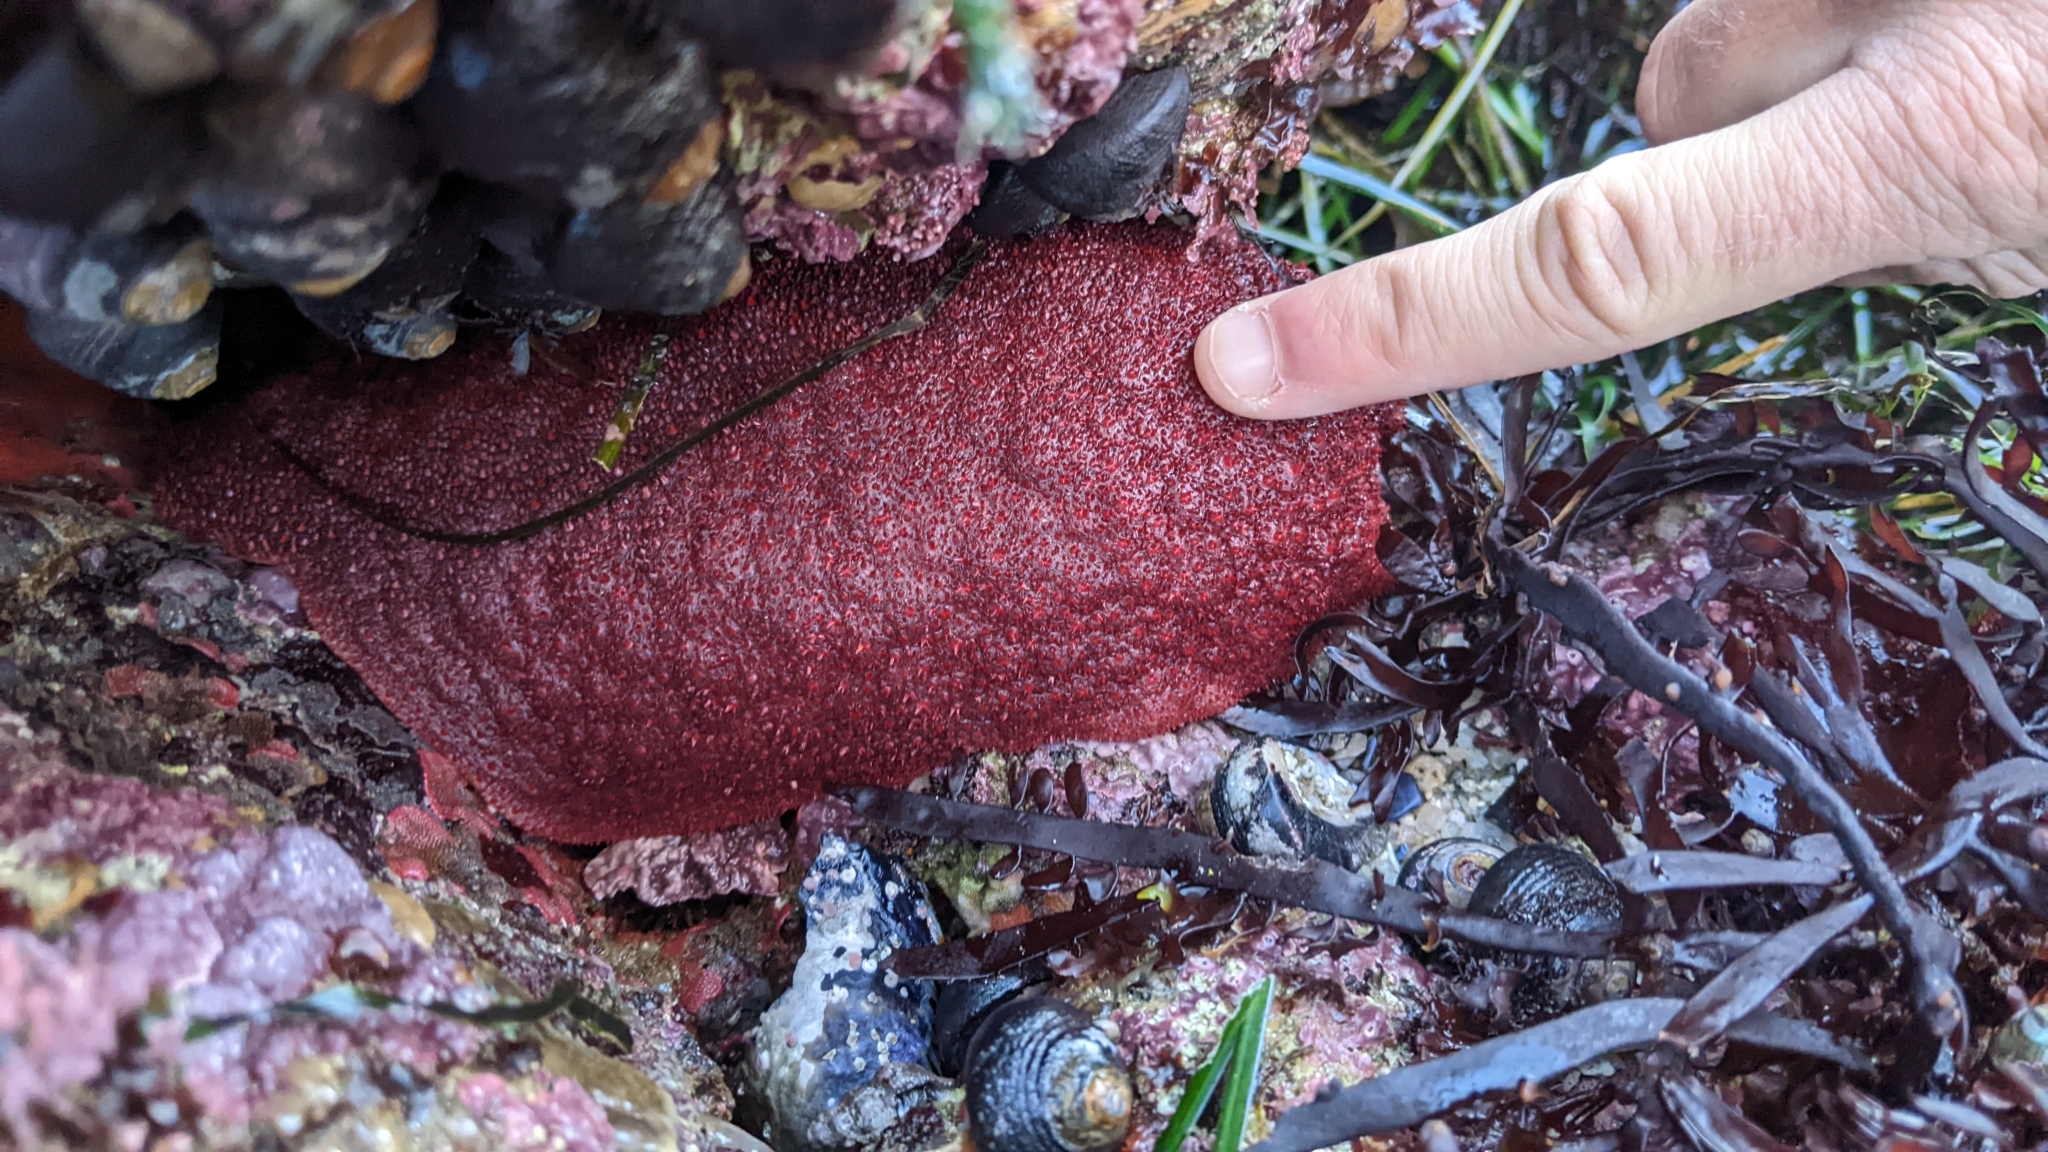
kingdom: Animalia
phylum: Mollusca
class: Polyplacophora
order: Chitonida
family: Acanthochitonidae
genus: Cryptochiton
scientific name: Cryptochiton stelleri
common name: Giant pacific chiton
